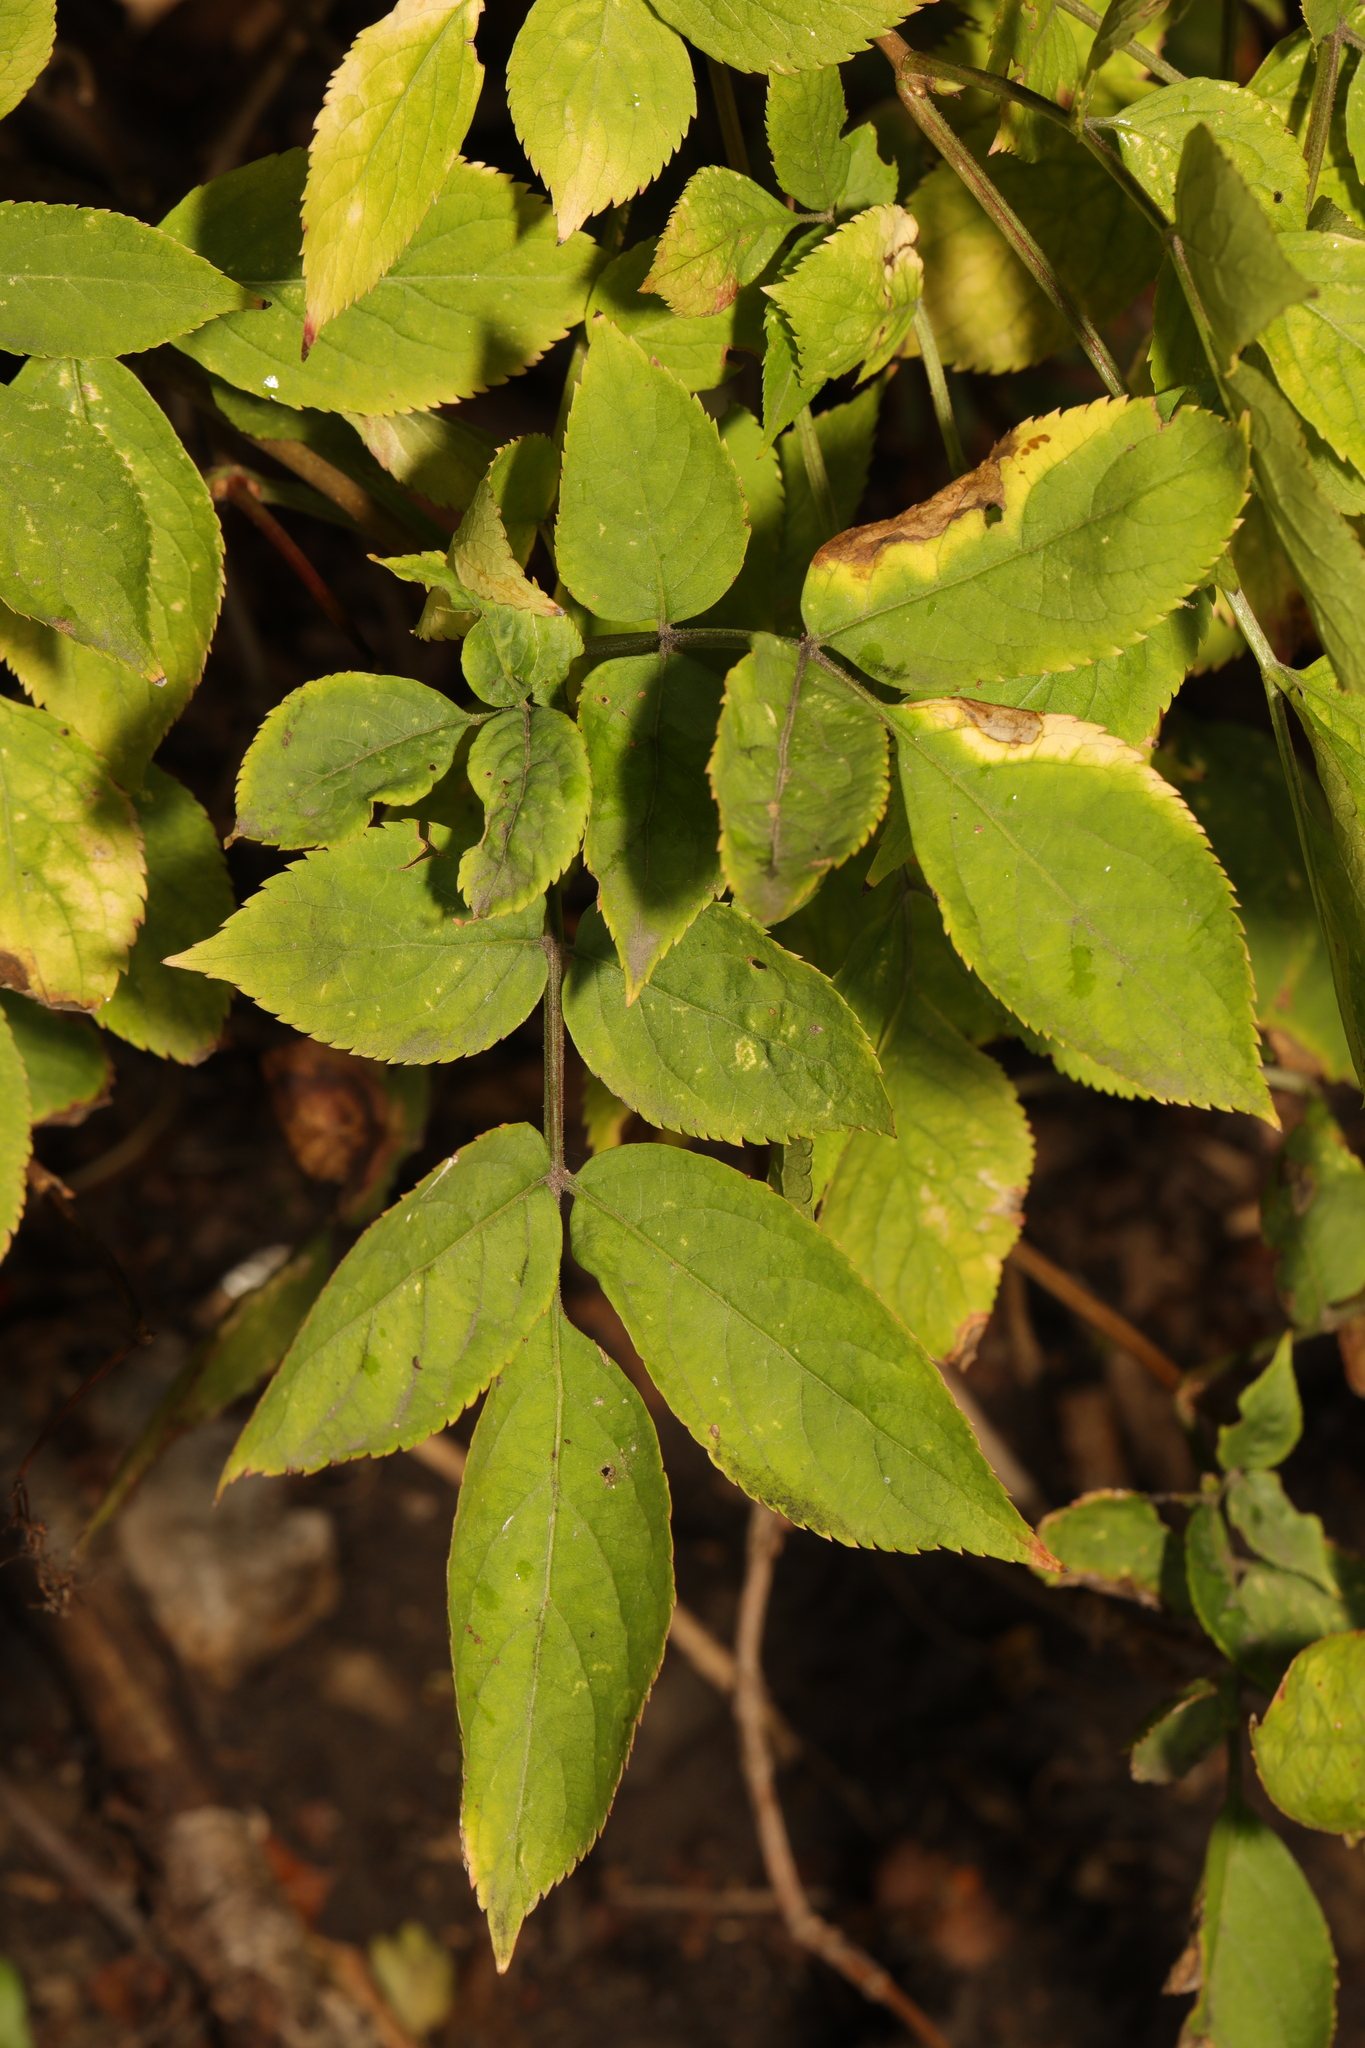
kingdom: Plantae
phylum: Tracheophyta
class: Magnoliopsida
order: Dipsacales
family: Viburnaceae
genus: Sambucus
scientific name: Sambucus nigra
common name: Elder
